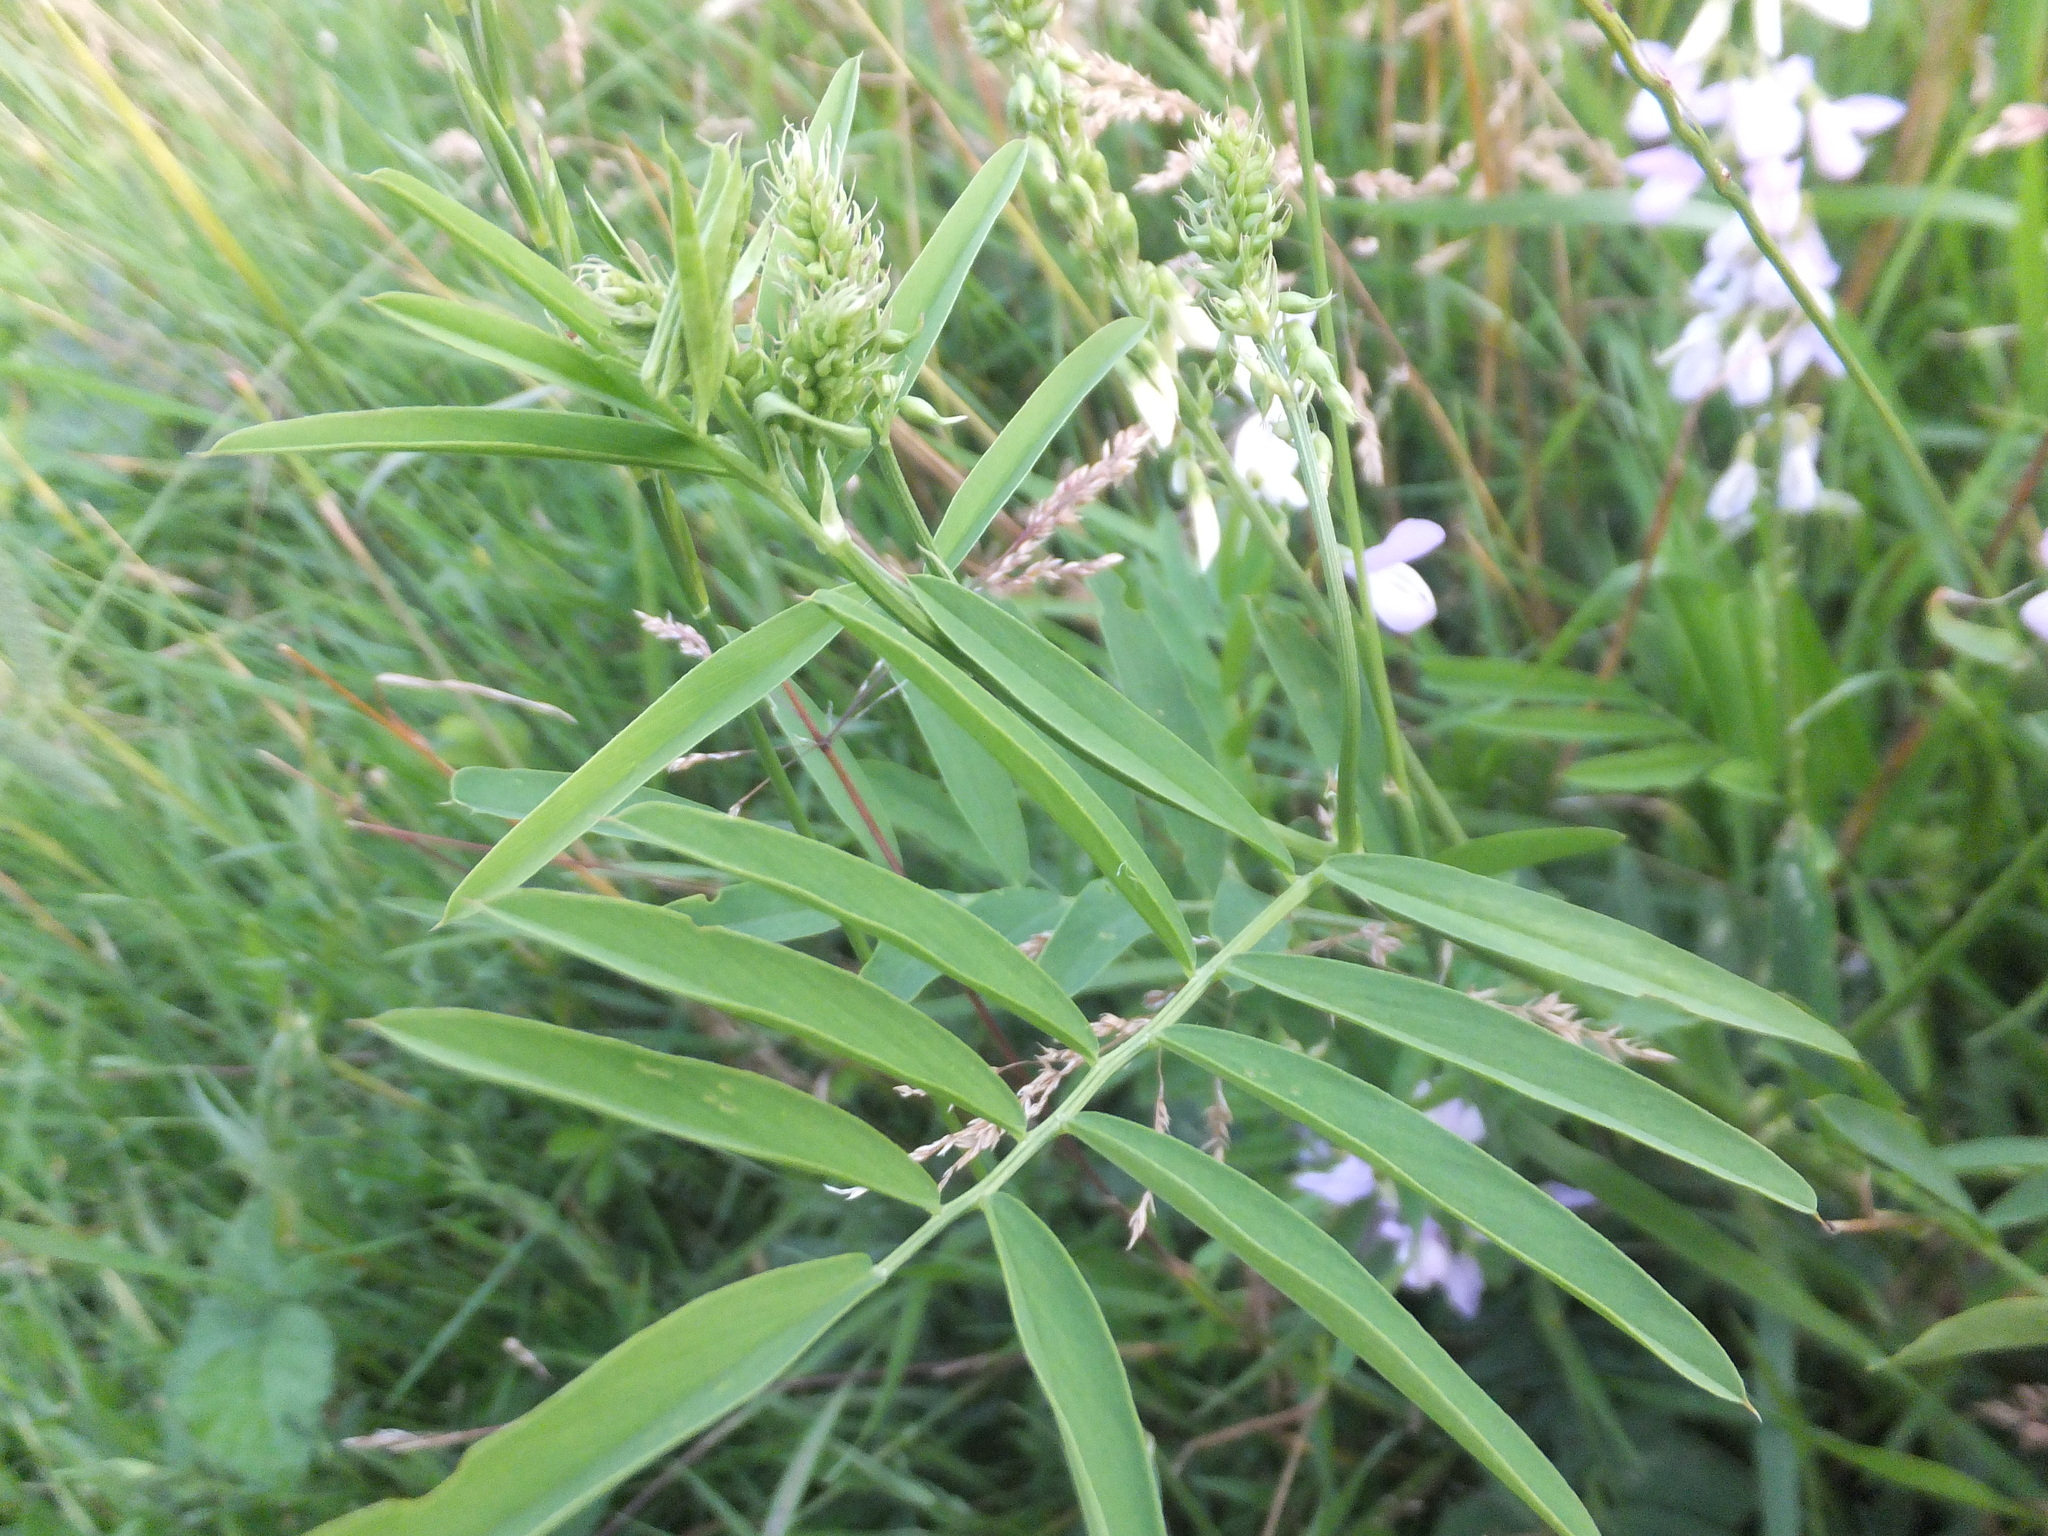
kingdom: Plantae
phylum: Tracheophyta
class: Magnoliopsida
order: Fabales
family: Fabaceae
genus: Galega
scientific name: Galega officinalis
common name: Goat's-rue
